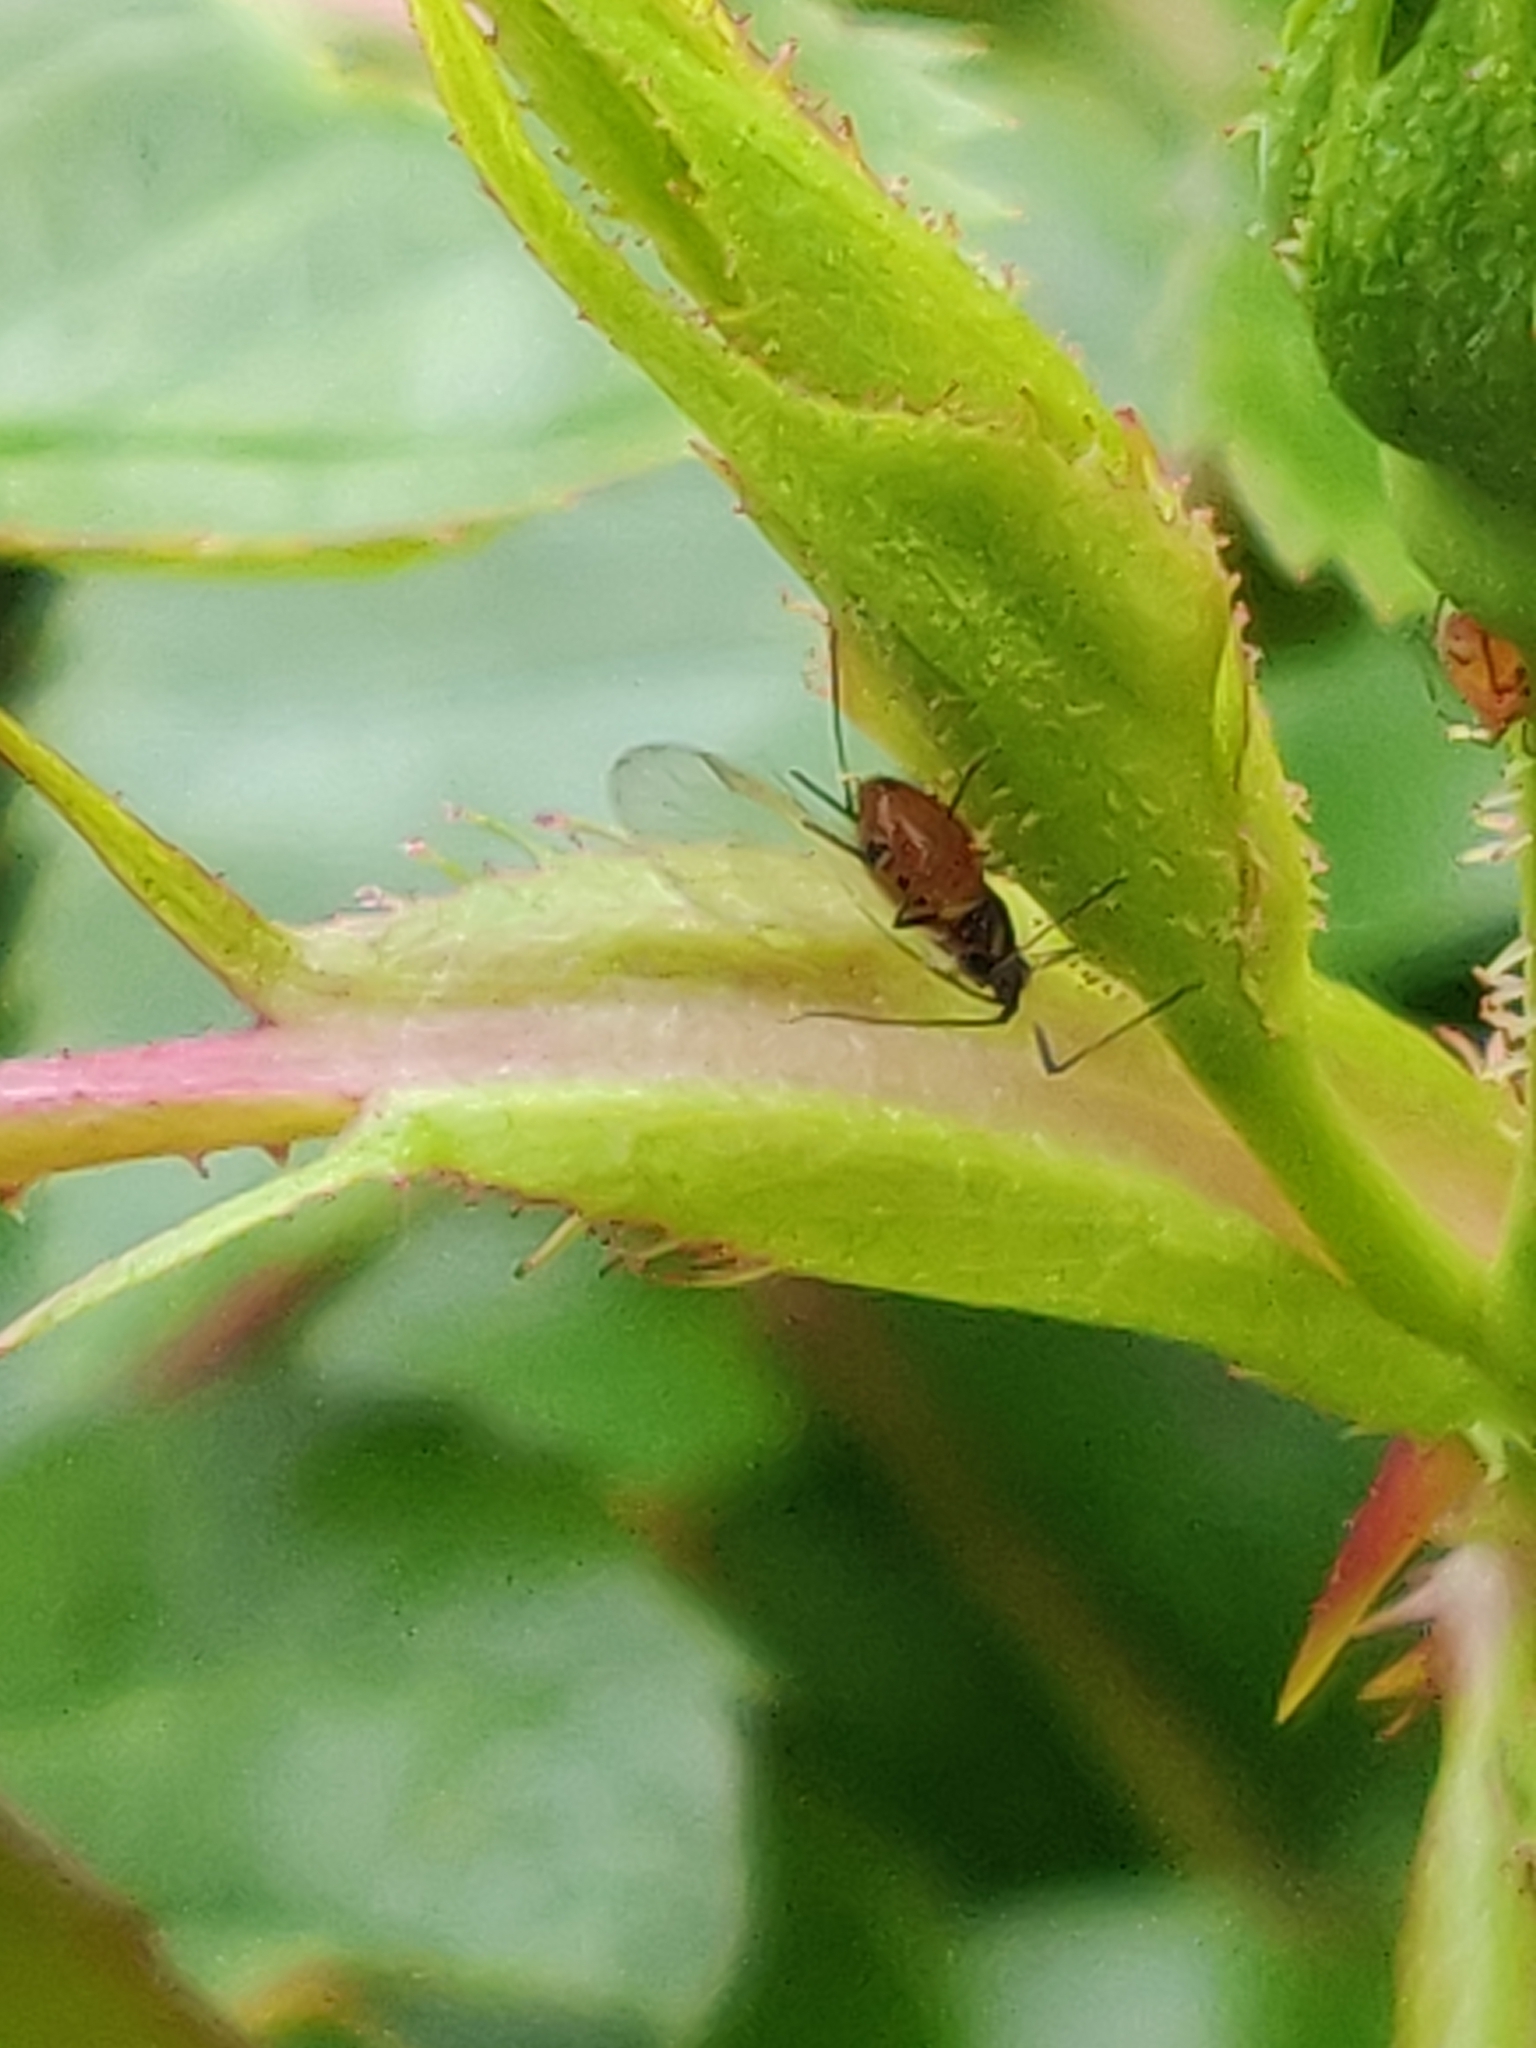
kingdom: Animalia
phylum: Arthropoda
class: Insecta
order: Hemiptera
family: Aphididae
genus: Macrosiphum
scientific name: Macrosiphum rosae
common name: Rose aphid
